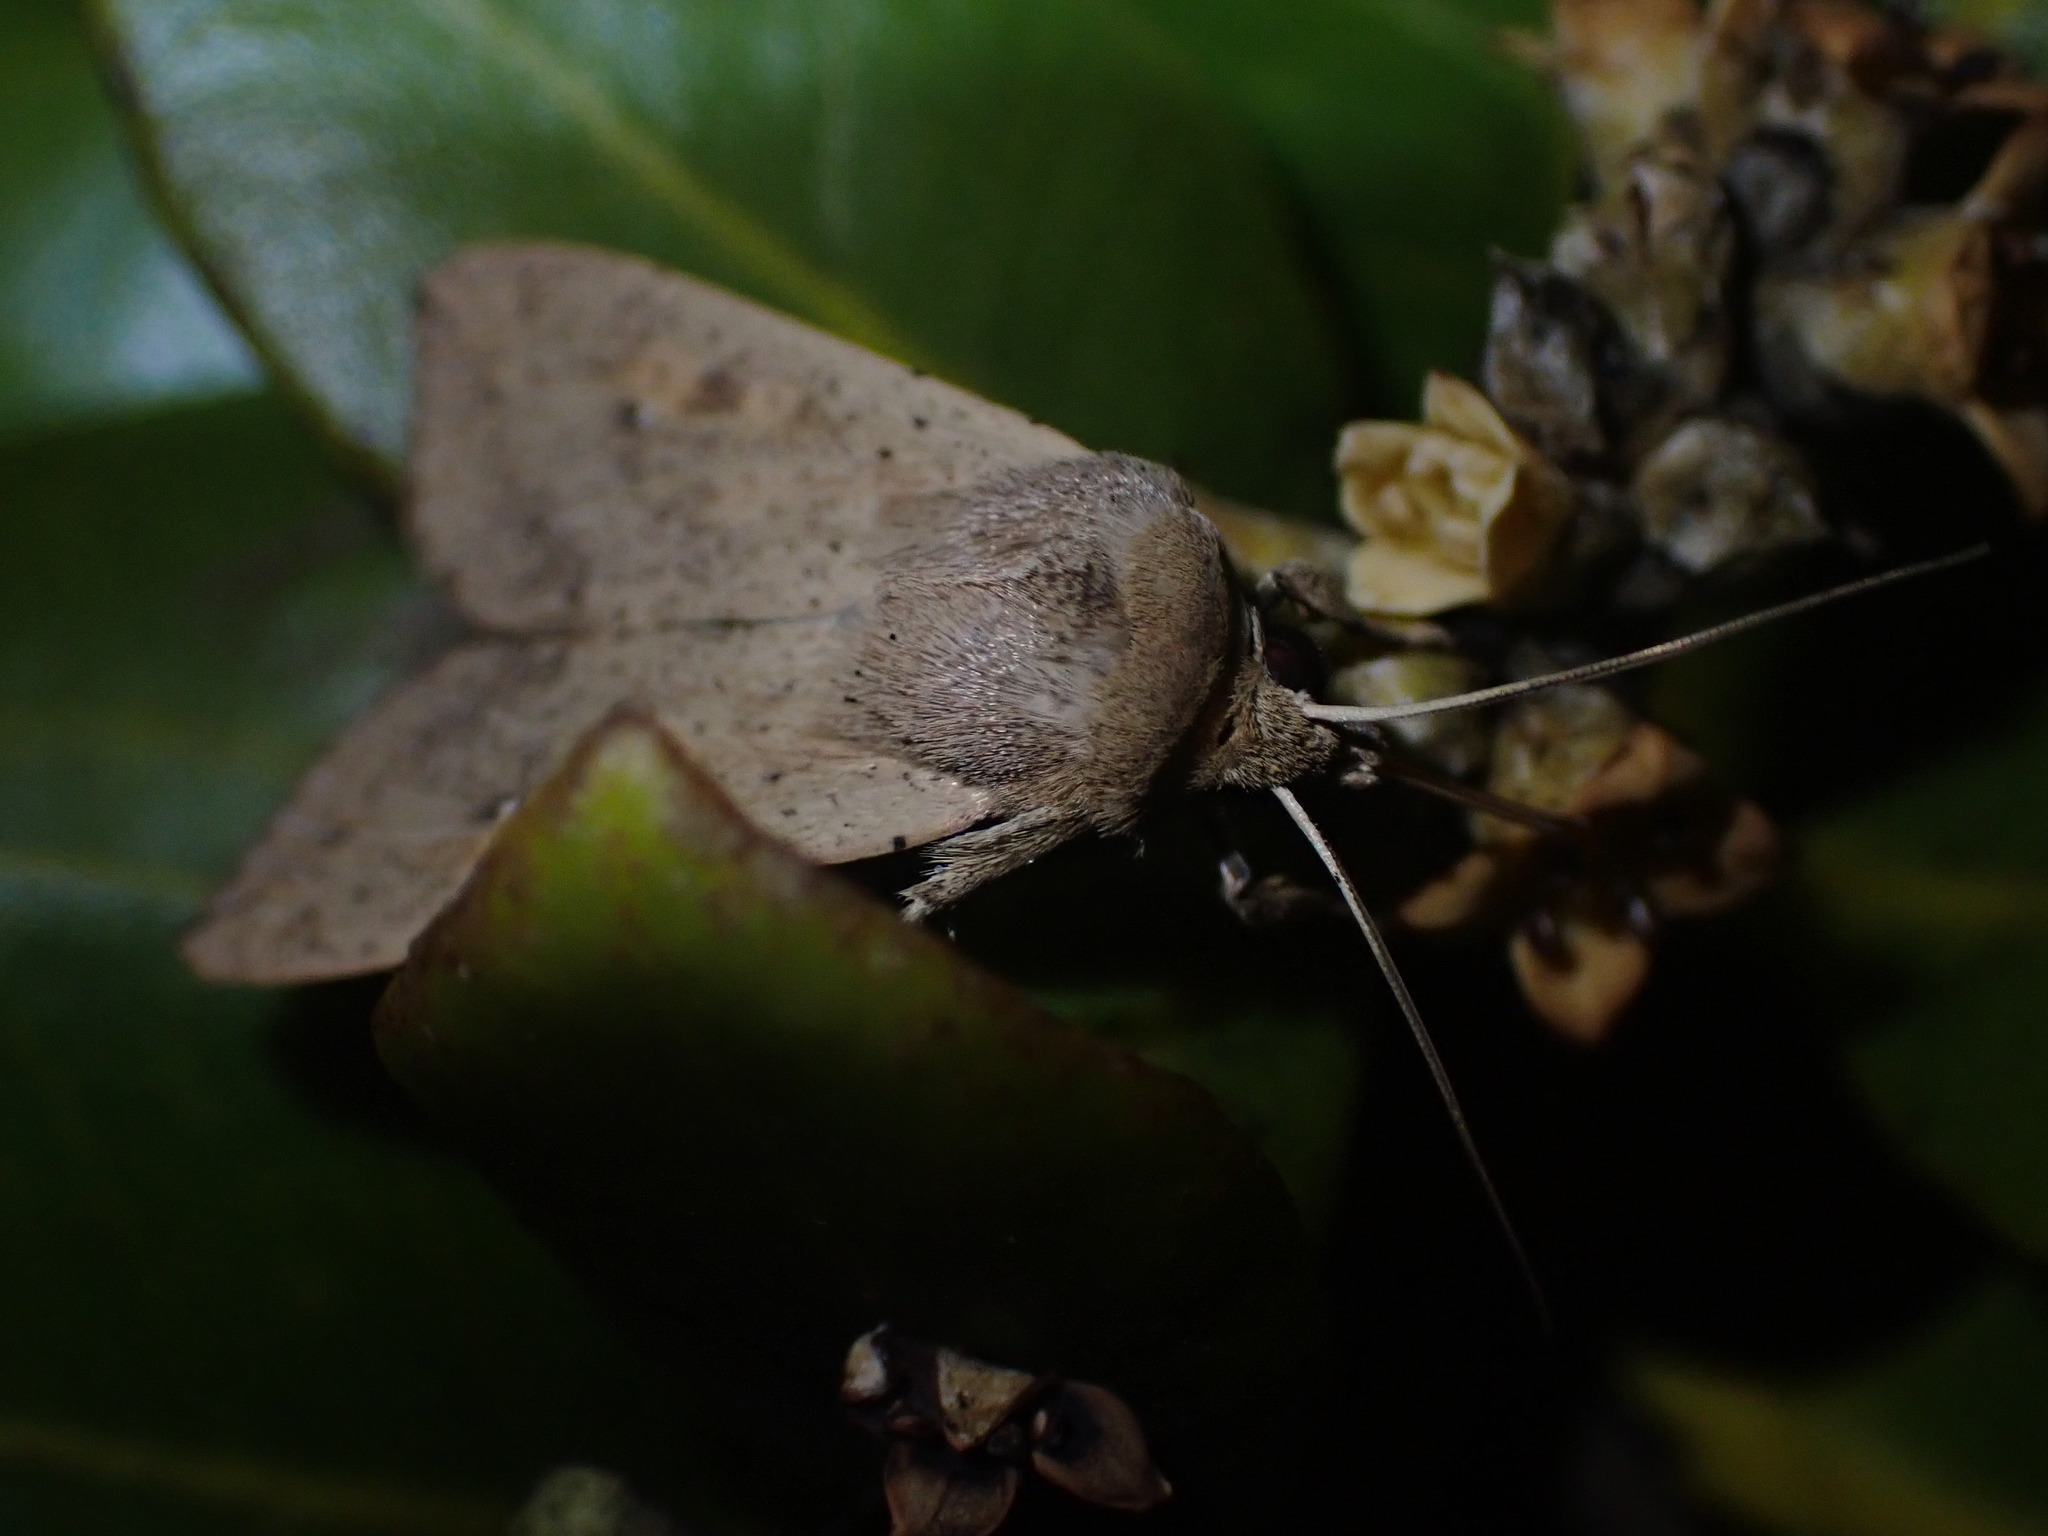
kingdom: Animalia
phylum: Arthropoda
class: Insecta
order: Lepidoptera
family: Noctuidae
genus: Mythimna
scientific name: Mythimna separata
